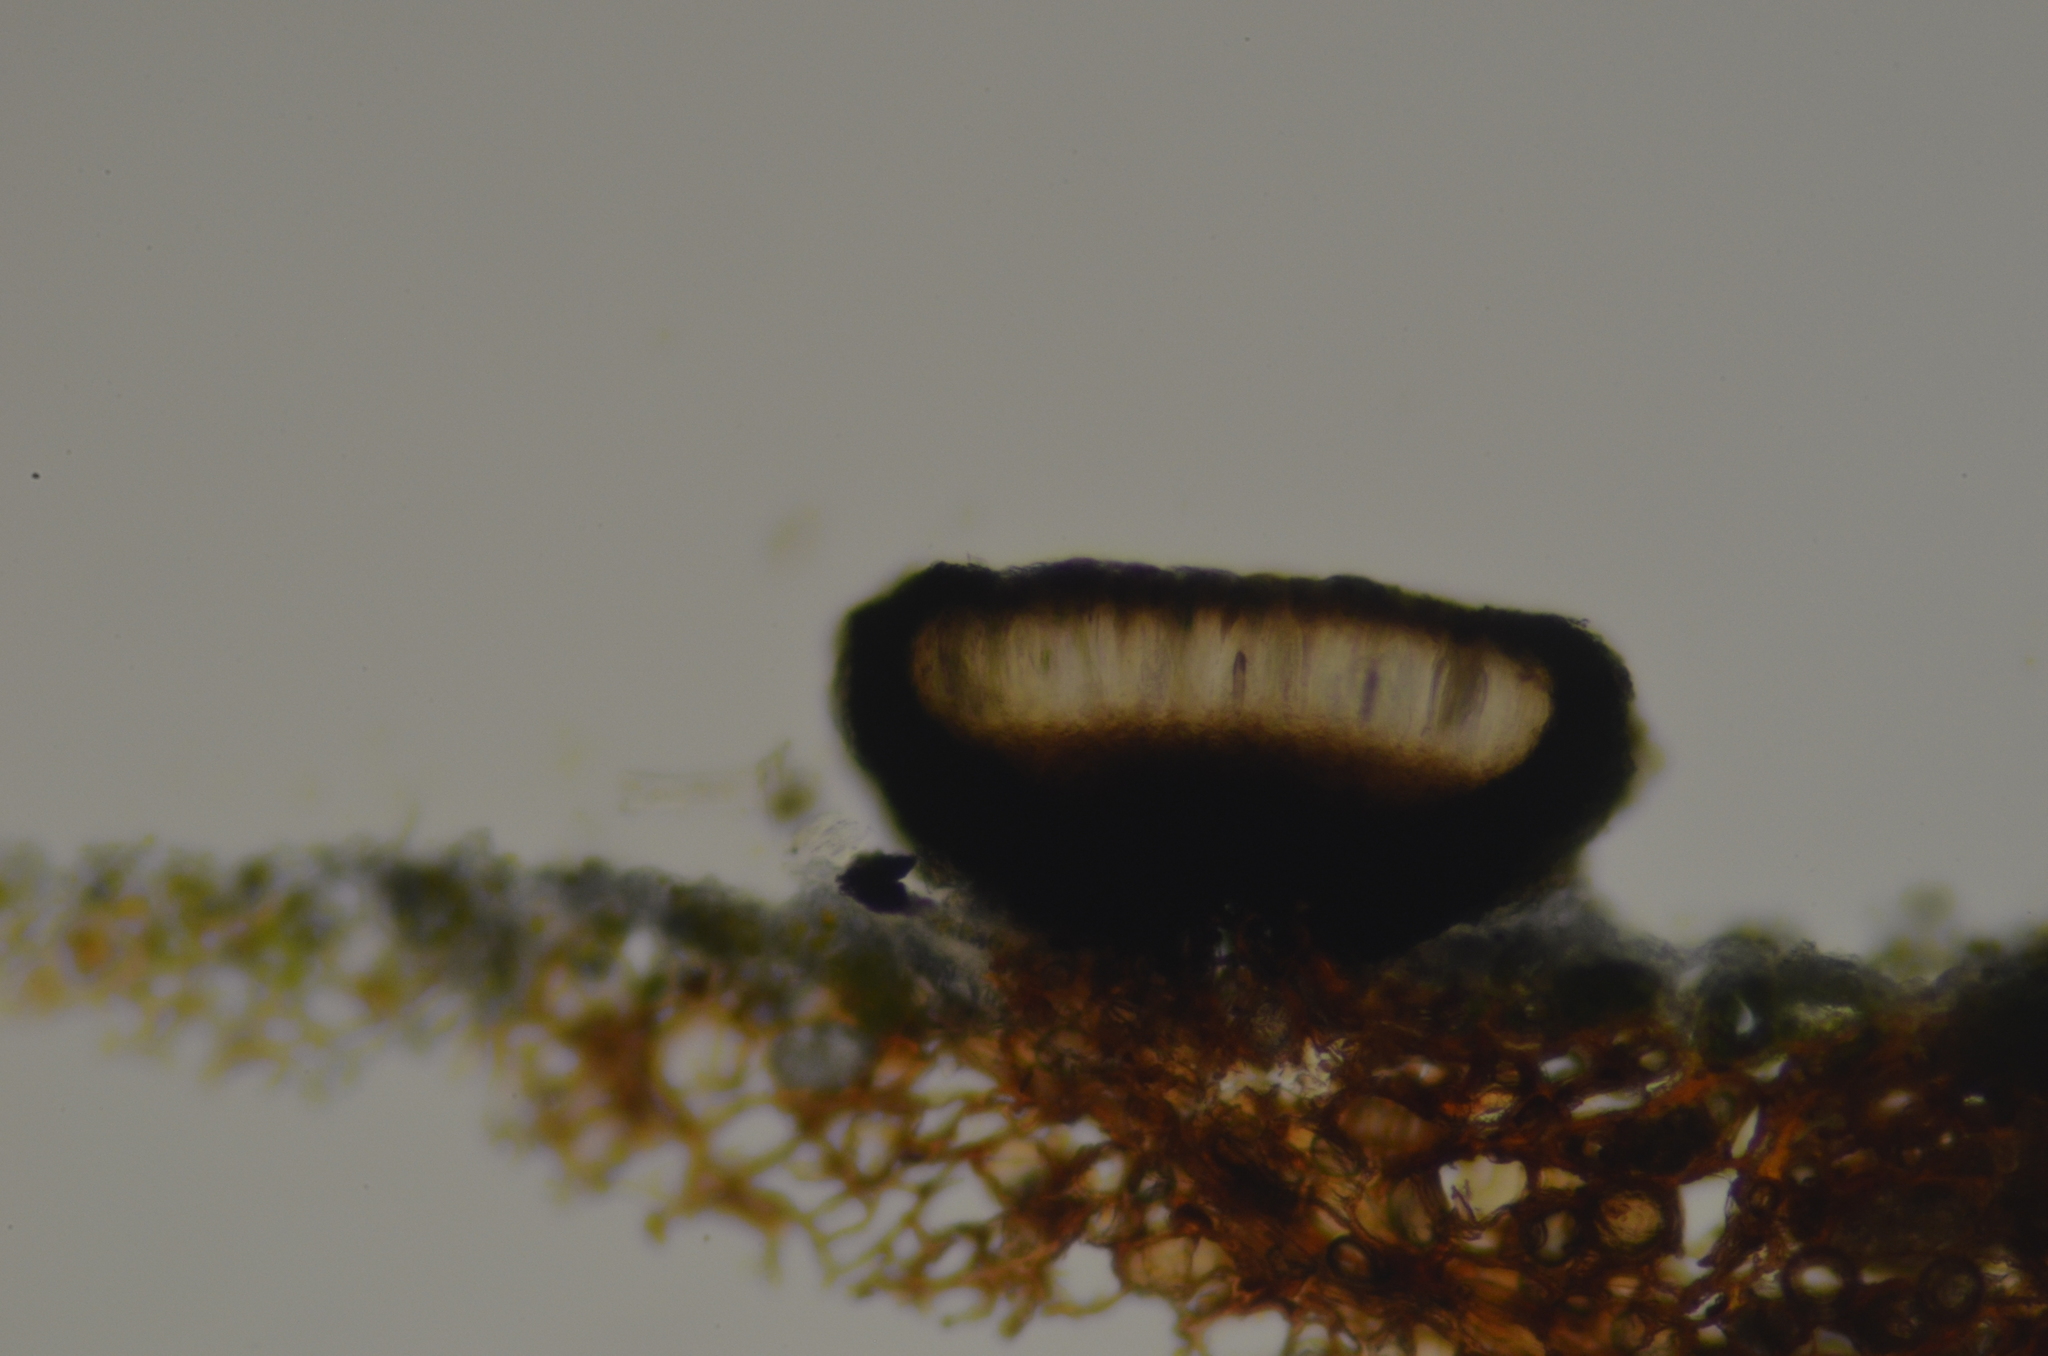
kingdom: Fungi
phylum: Ascomycota
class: Arthoniomycetes
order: Arthoniales
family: Lecanographaceae
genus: Alyxoria
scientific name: Alyxoria varia
